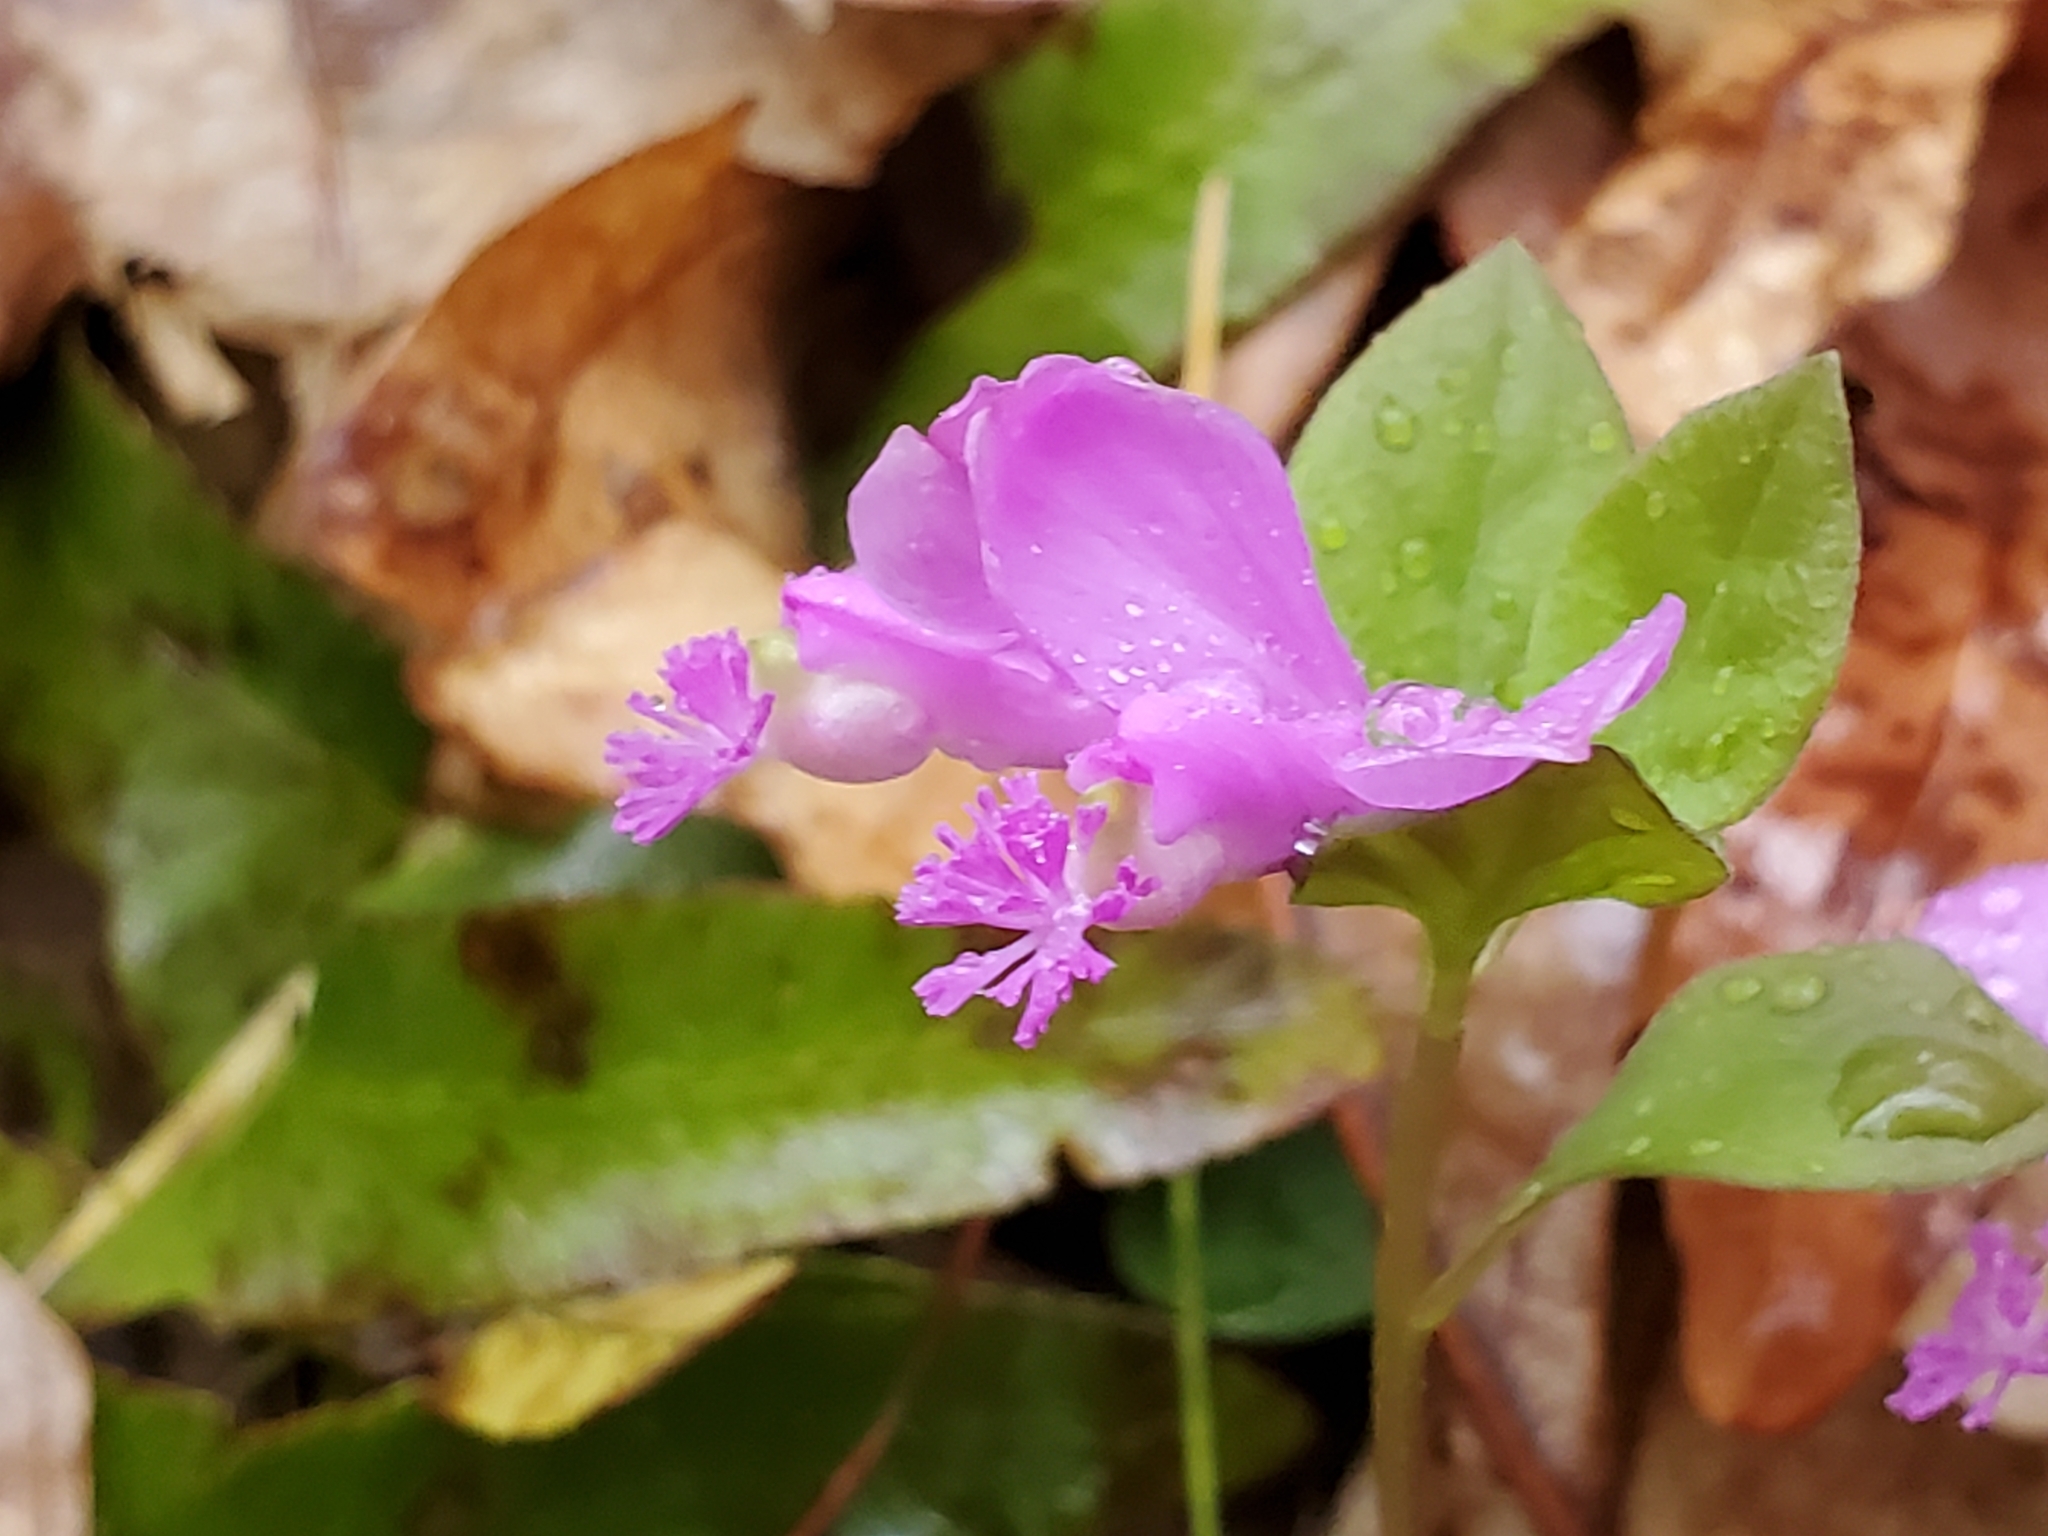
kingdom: Plantae
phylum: Tracheophyta
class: Magnoliopsida
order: Fabales
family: Polygalaceae
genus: Polygaloides
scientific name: Polygaloides paucifolia
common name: Bird-on-the-wing
